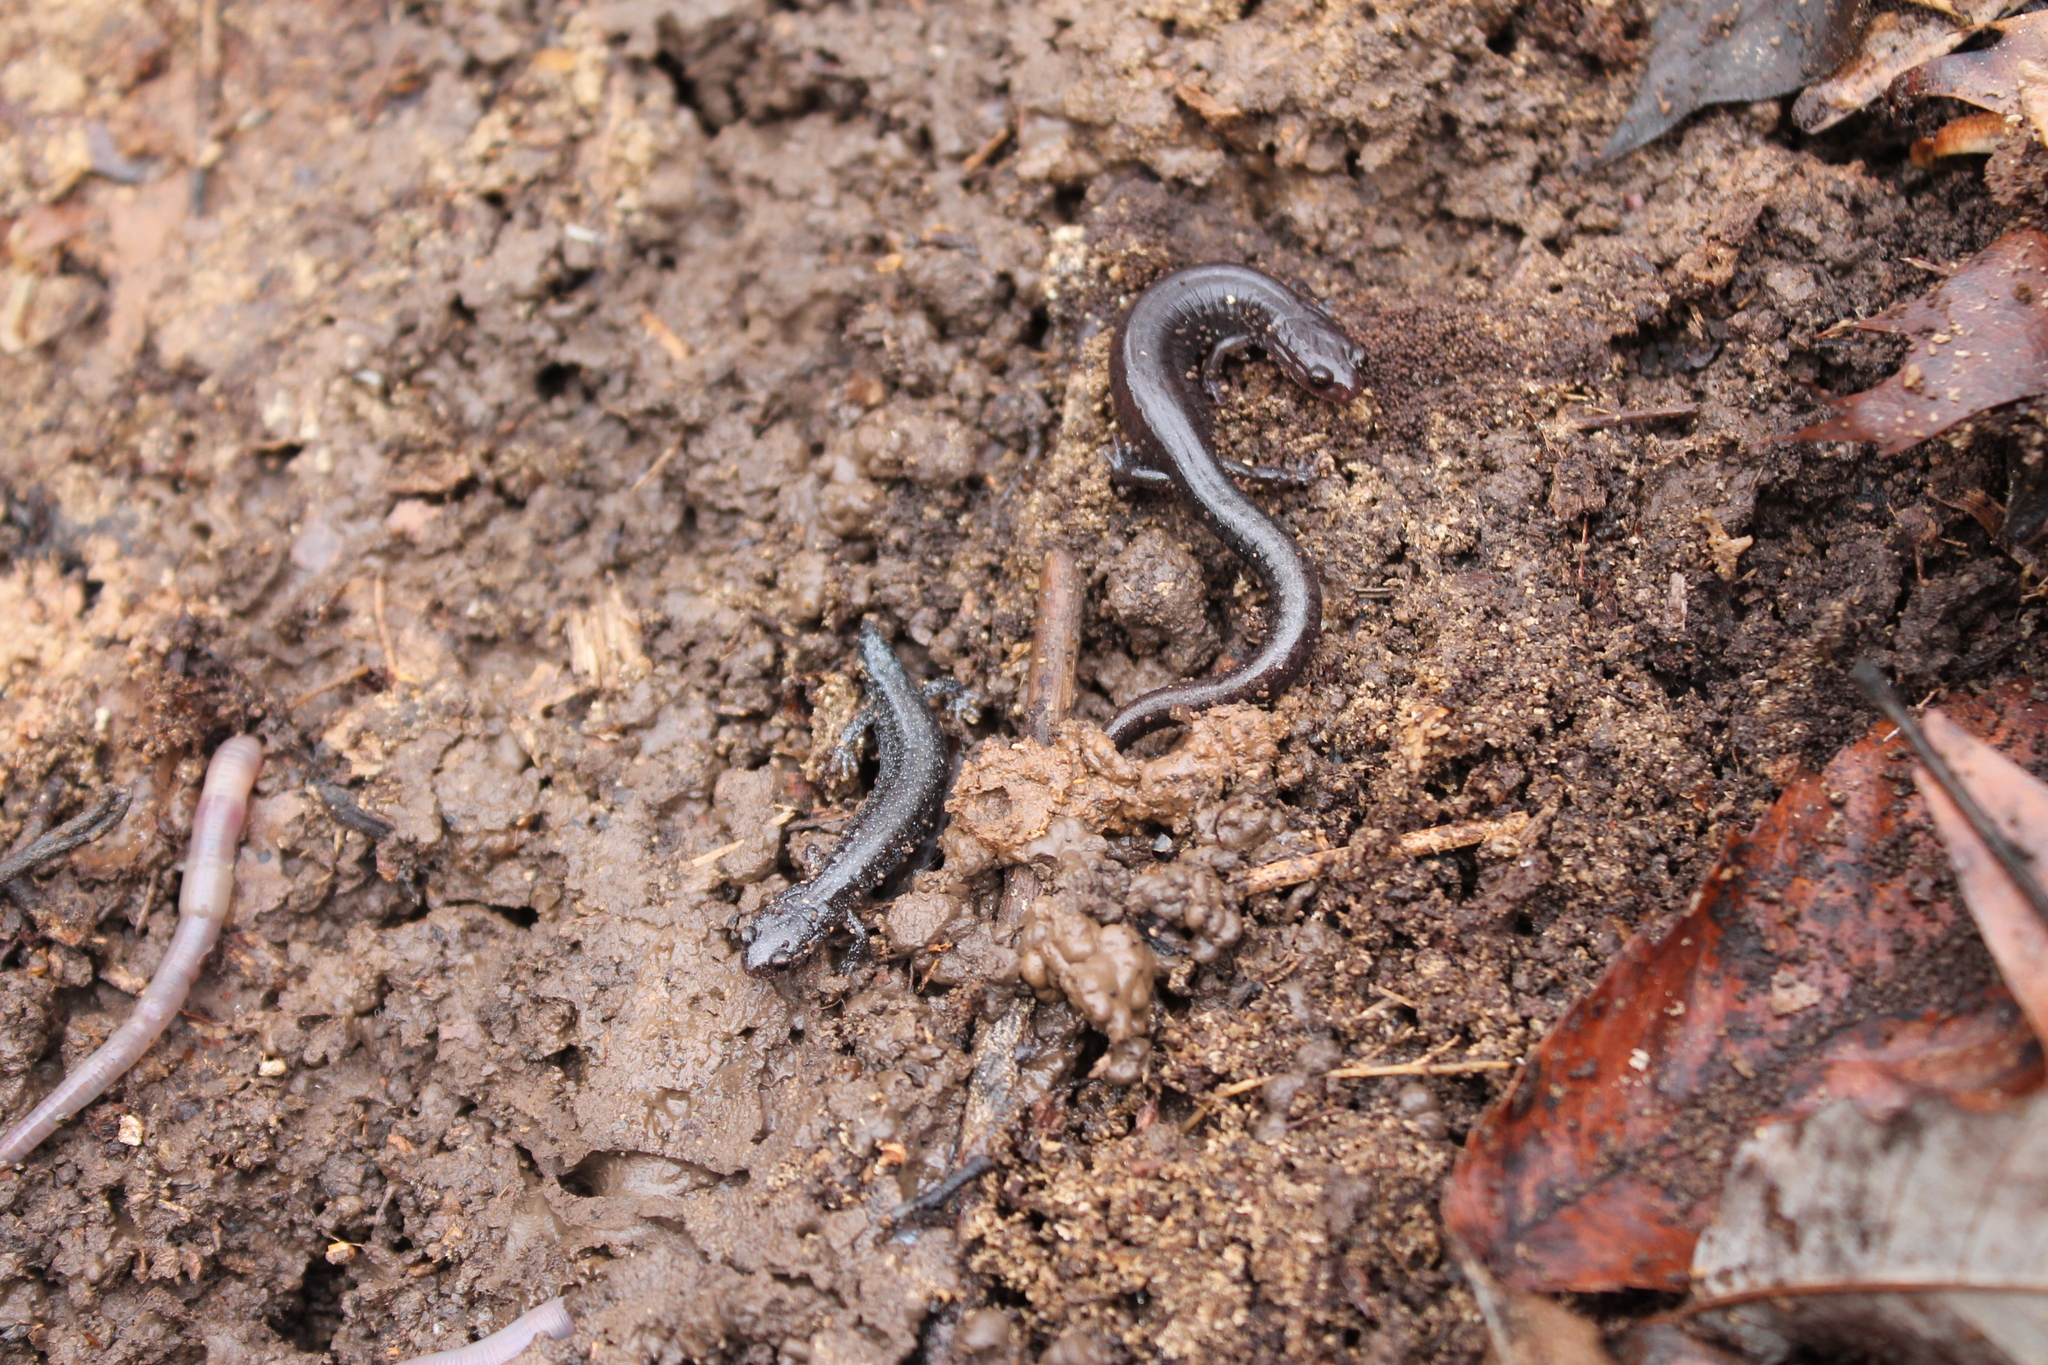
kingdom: Animalia
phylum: Chordata
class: Amphibia
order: Caudata
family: Plethodontidae
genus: Plethodon
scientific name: Plethodon dorsalis
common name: Northern zigzag salamander
